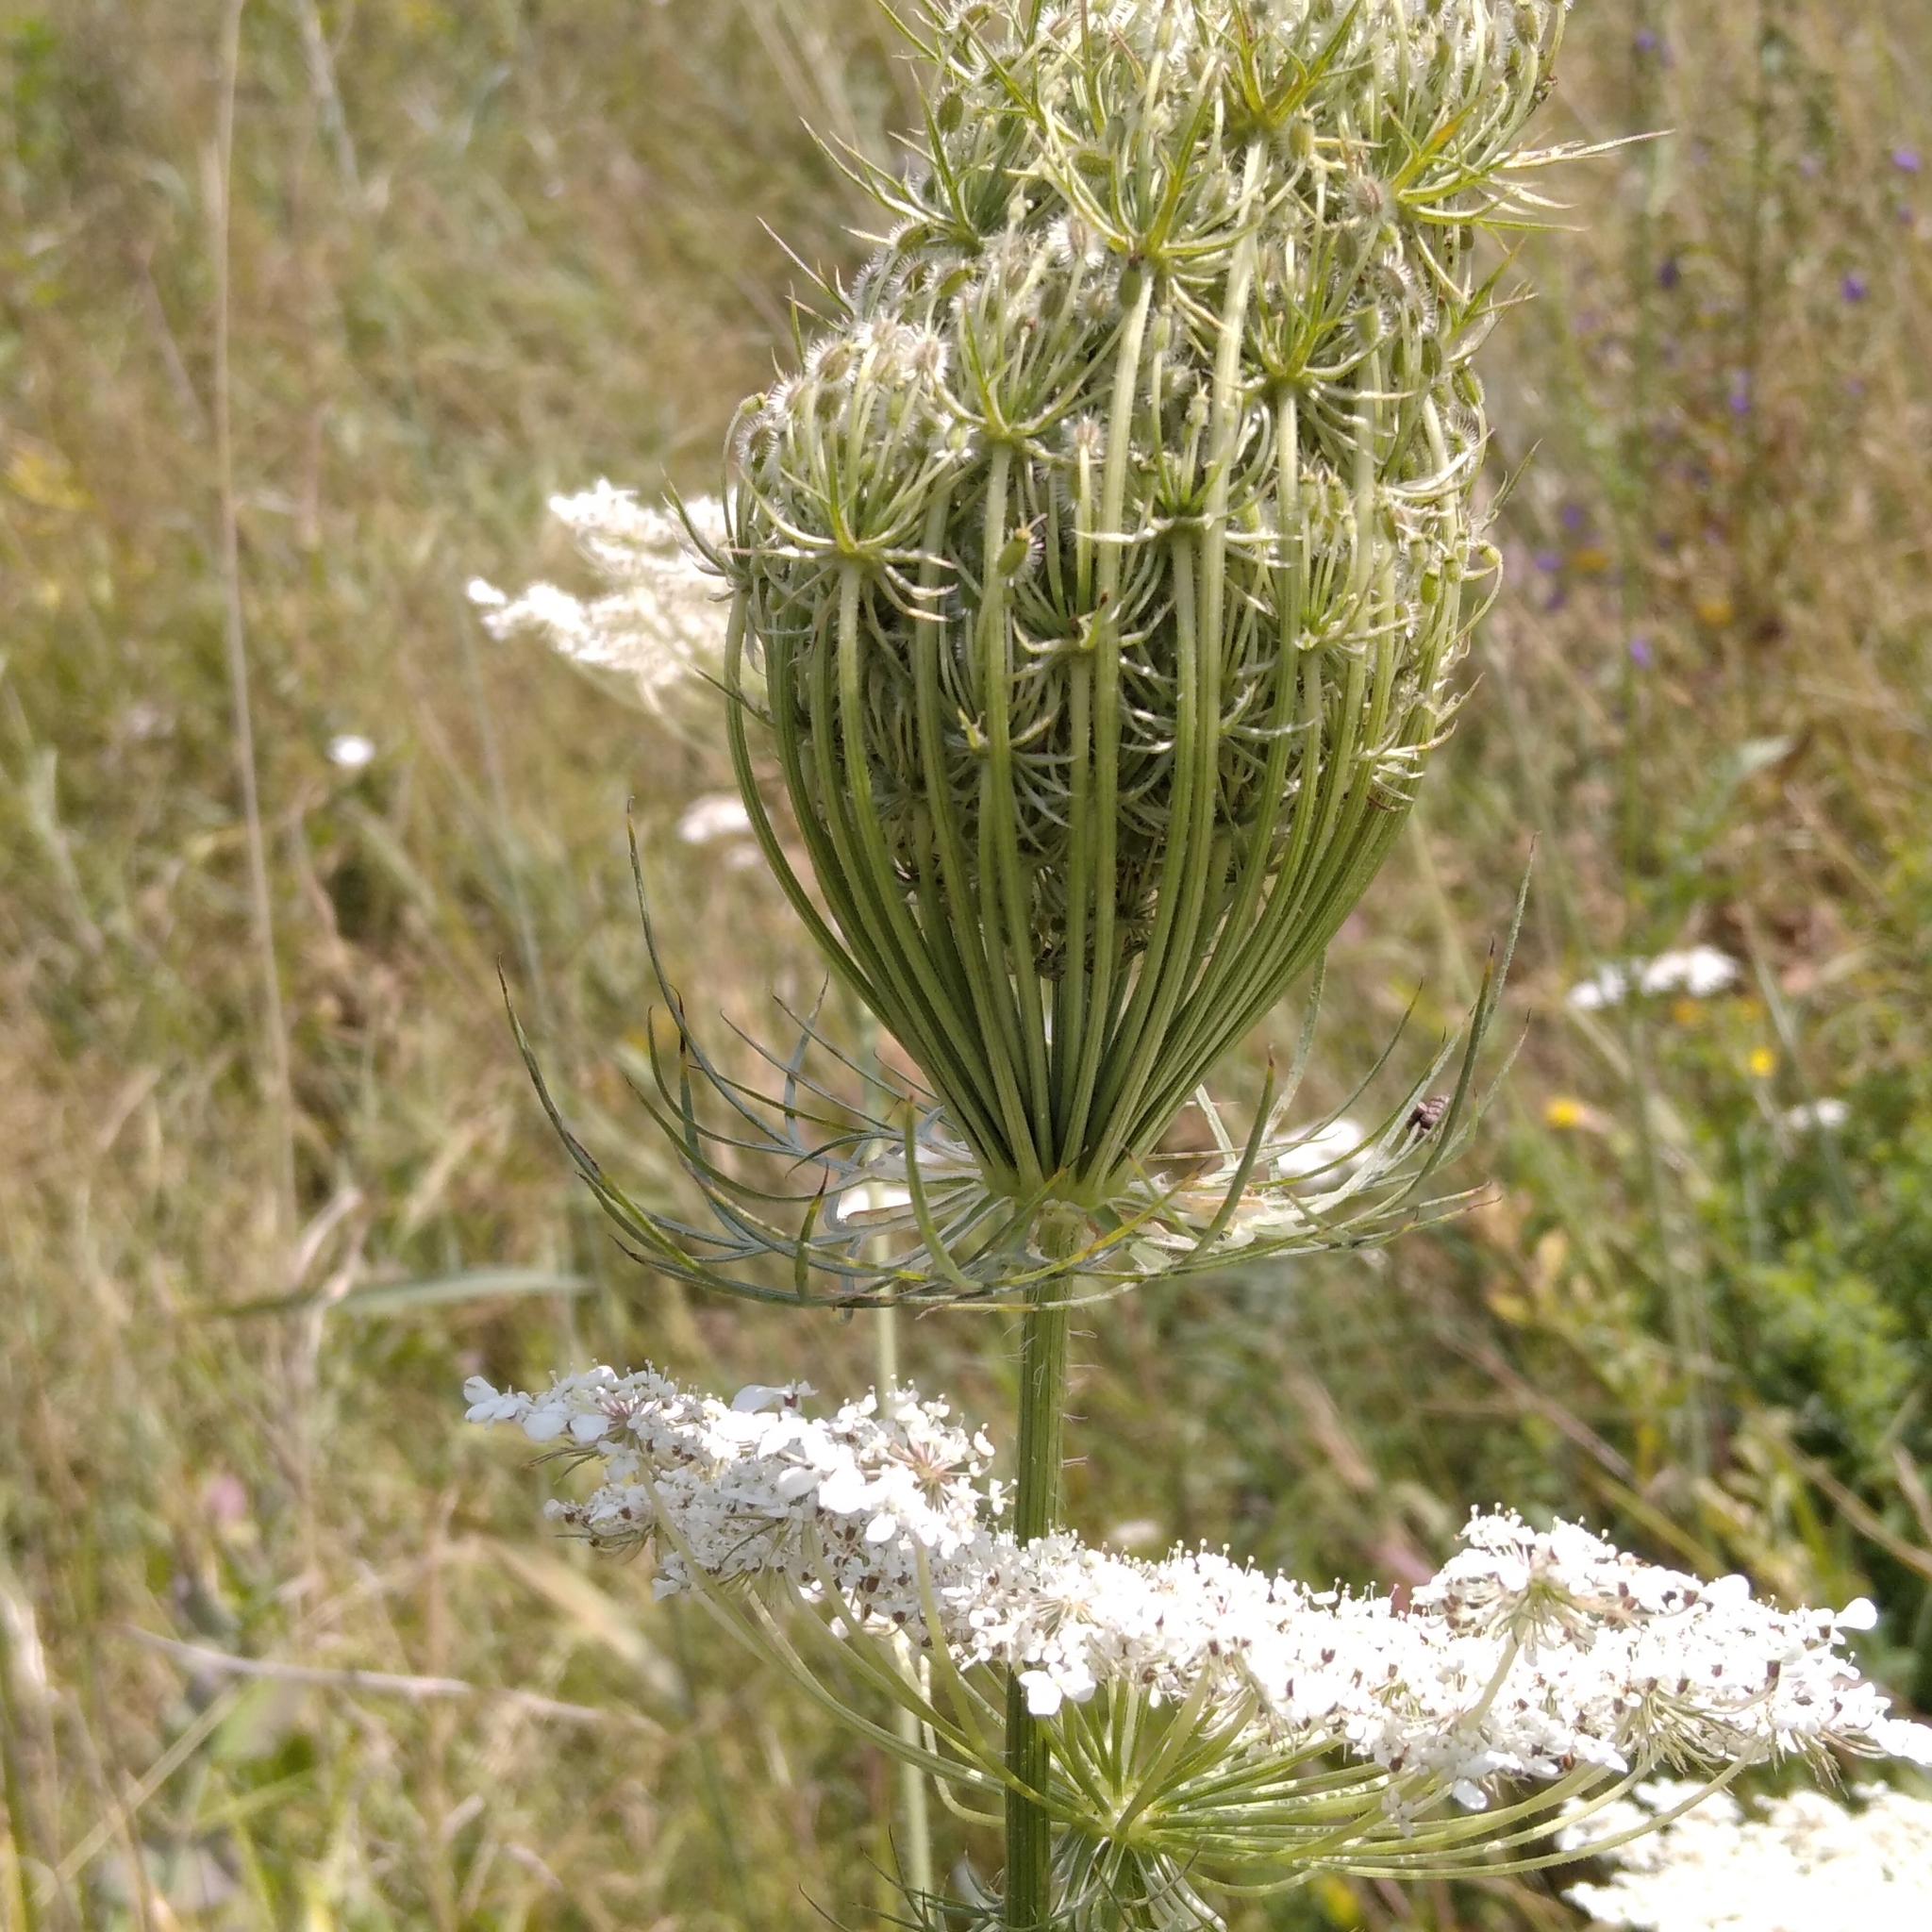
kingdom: Plantae
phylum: Tracheophyta
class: Magnoliopsida
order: Apiales
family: Apiaceae
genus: Daucus
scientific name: Daucus carota
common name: Wild carrot
